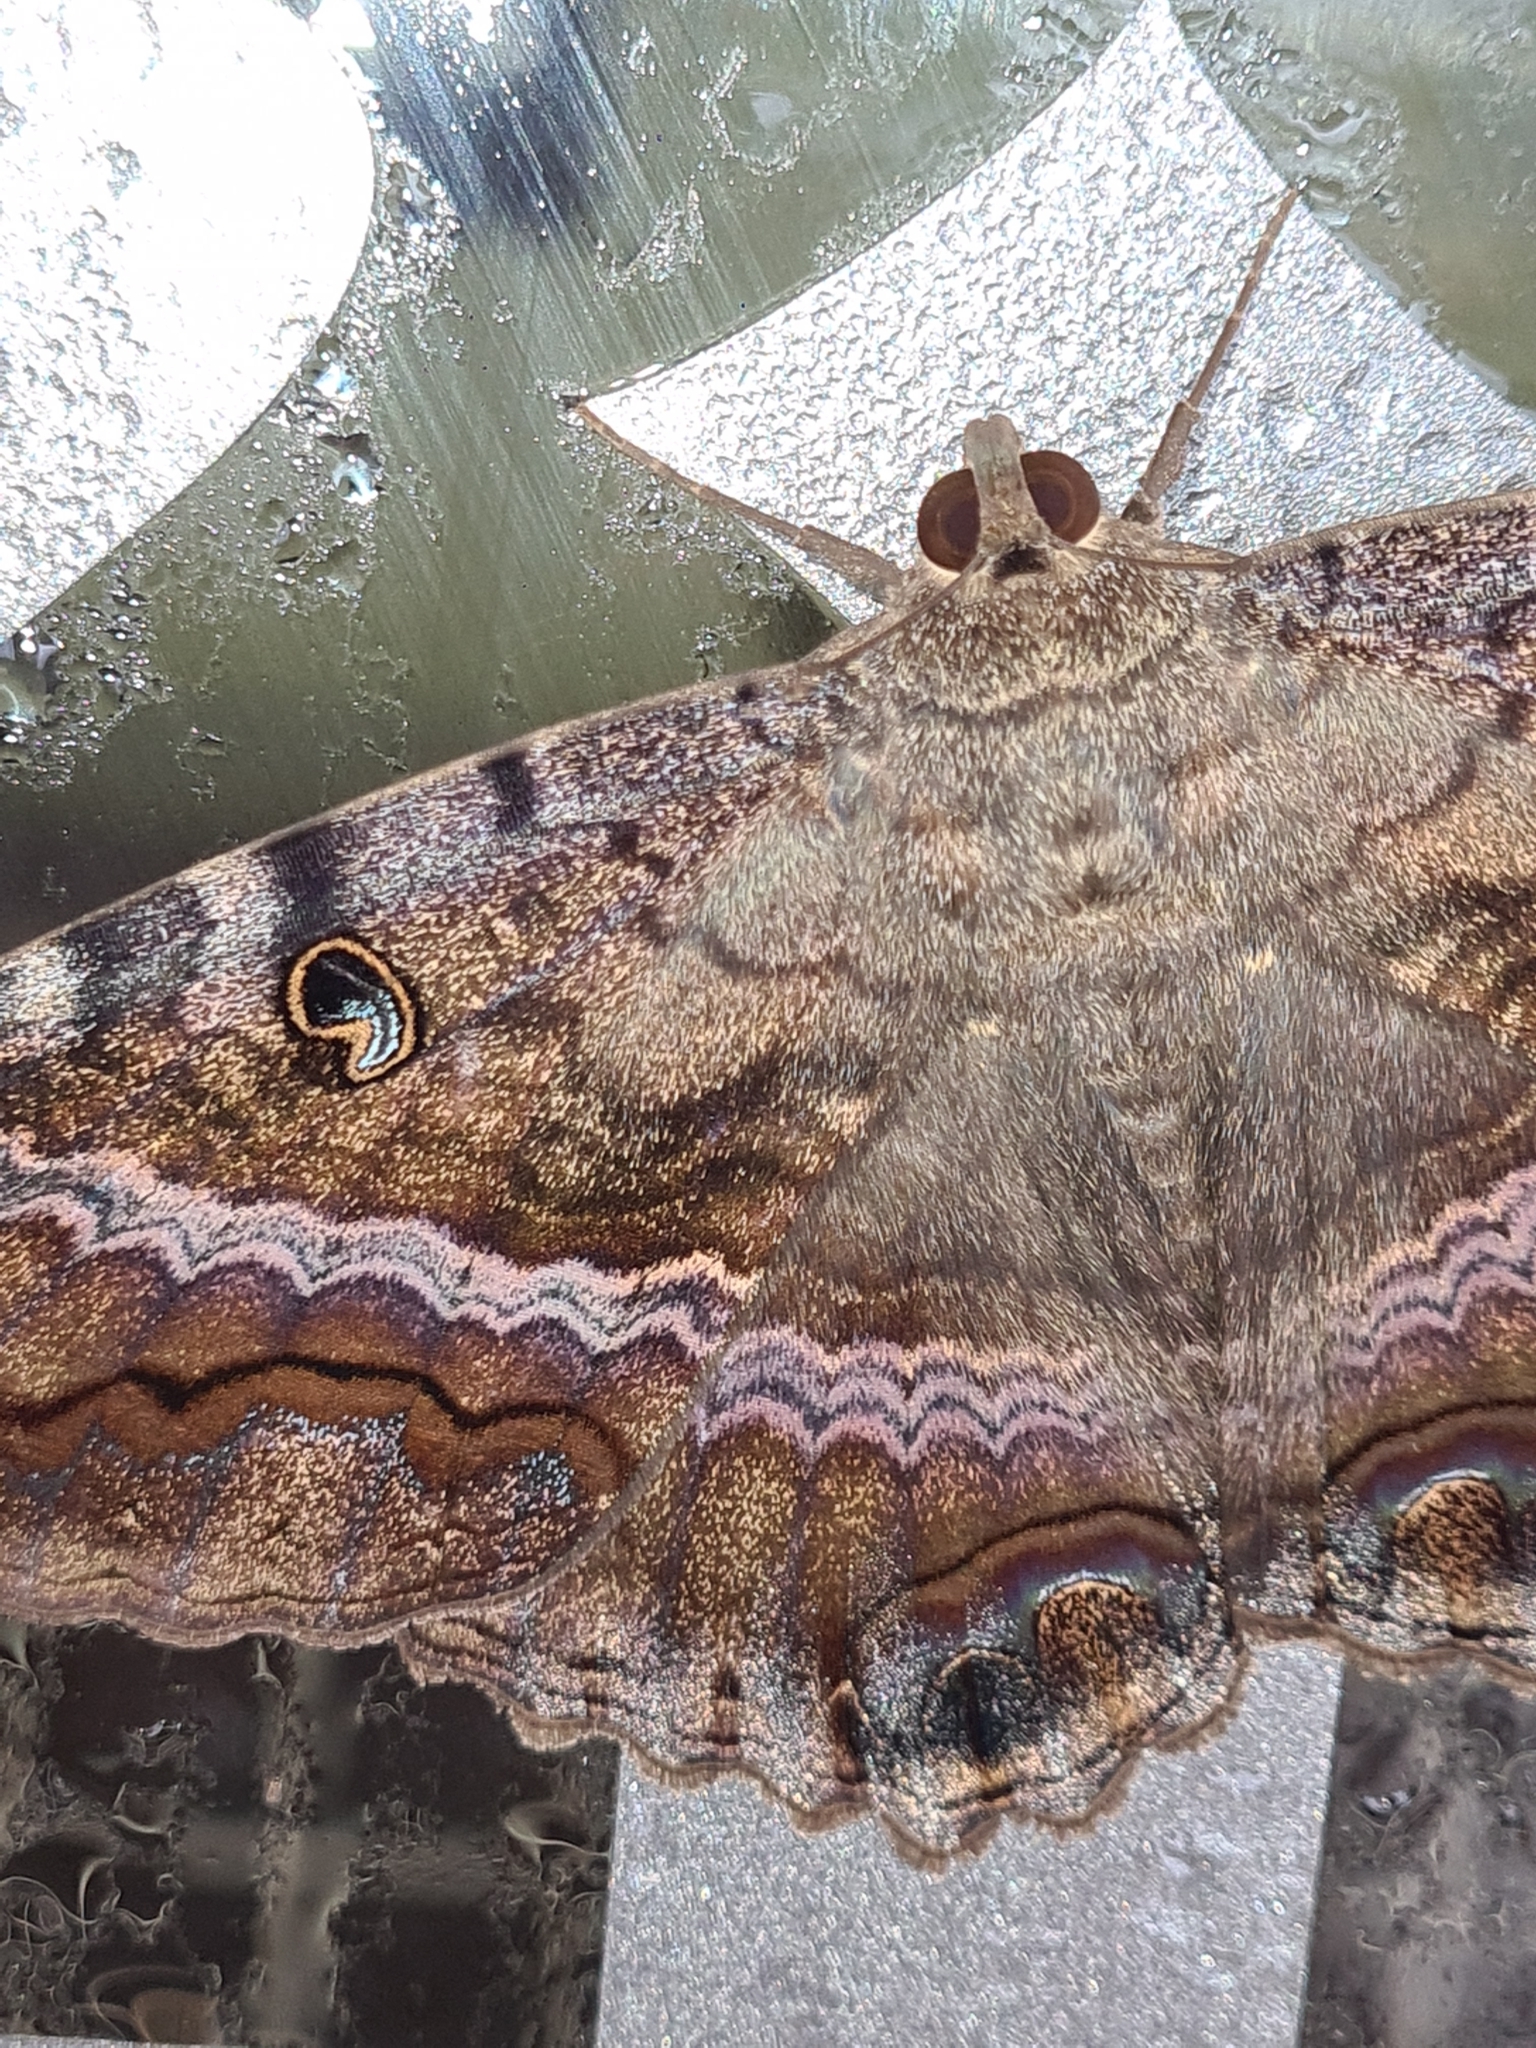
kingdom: Animalia
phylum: Arthropoda
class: Insecta
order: Lepidoptera
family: Erebidae
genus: Ascalapha
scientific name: Ascalapha odorata
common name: Black witch
